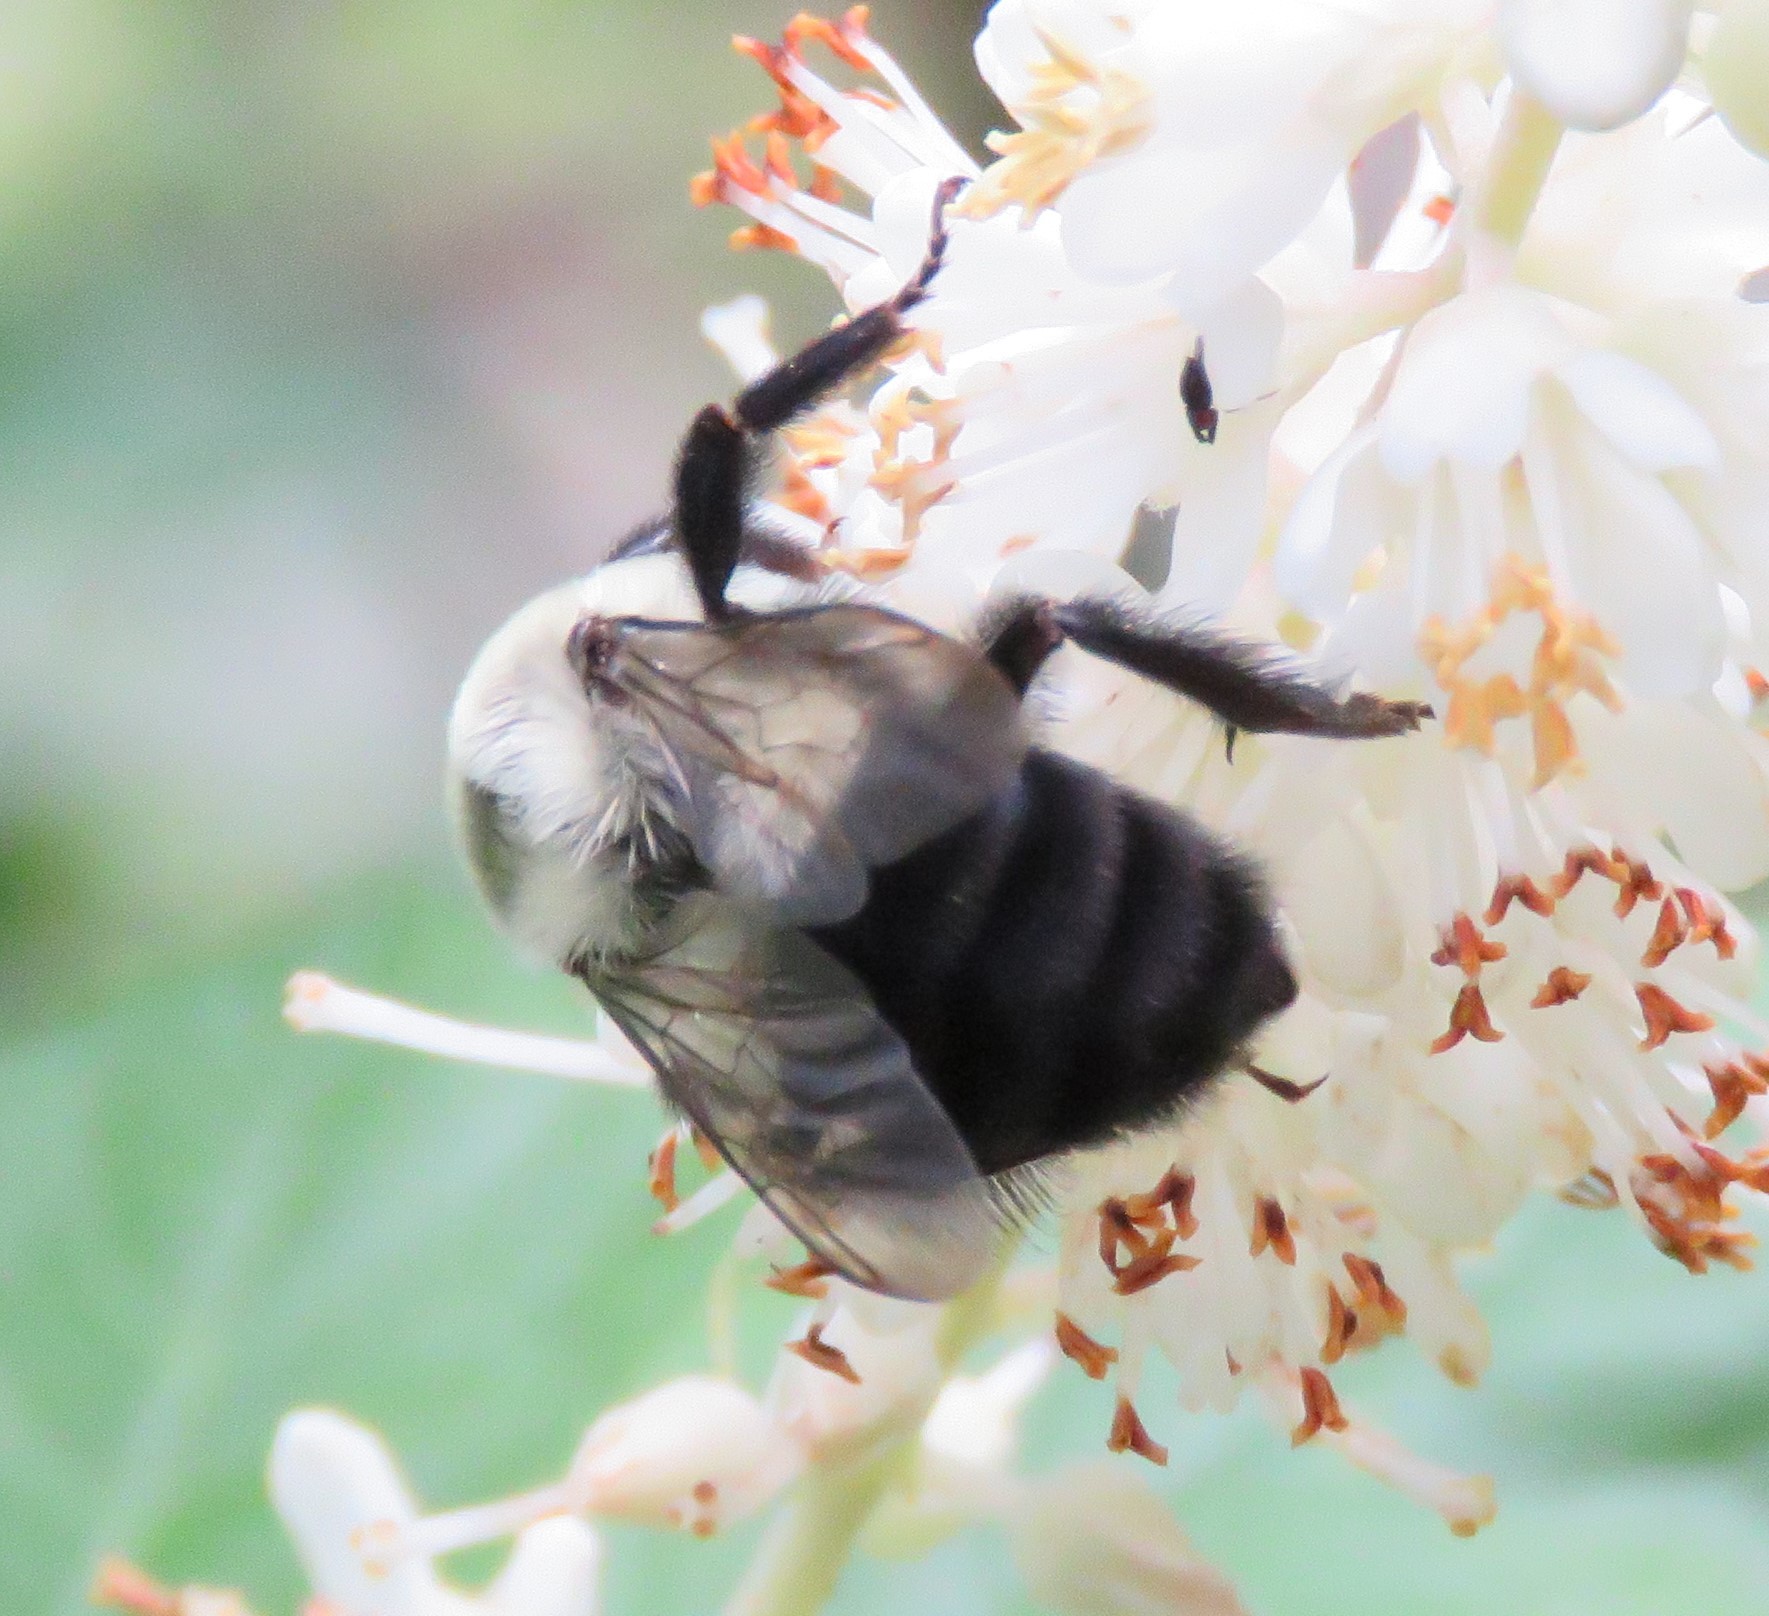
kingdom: Animalia
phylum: Arthropoda
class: Insecta
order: Hymenoptera
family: Apidae
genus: Bombus
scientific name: Bombus impatiens
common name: Common eastern bumble bee
